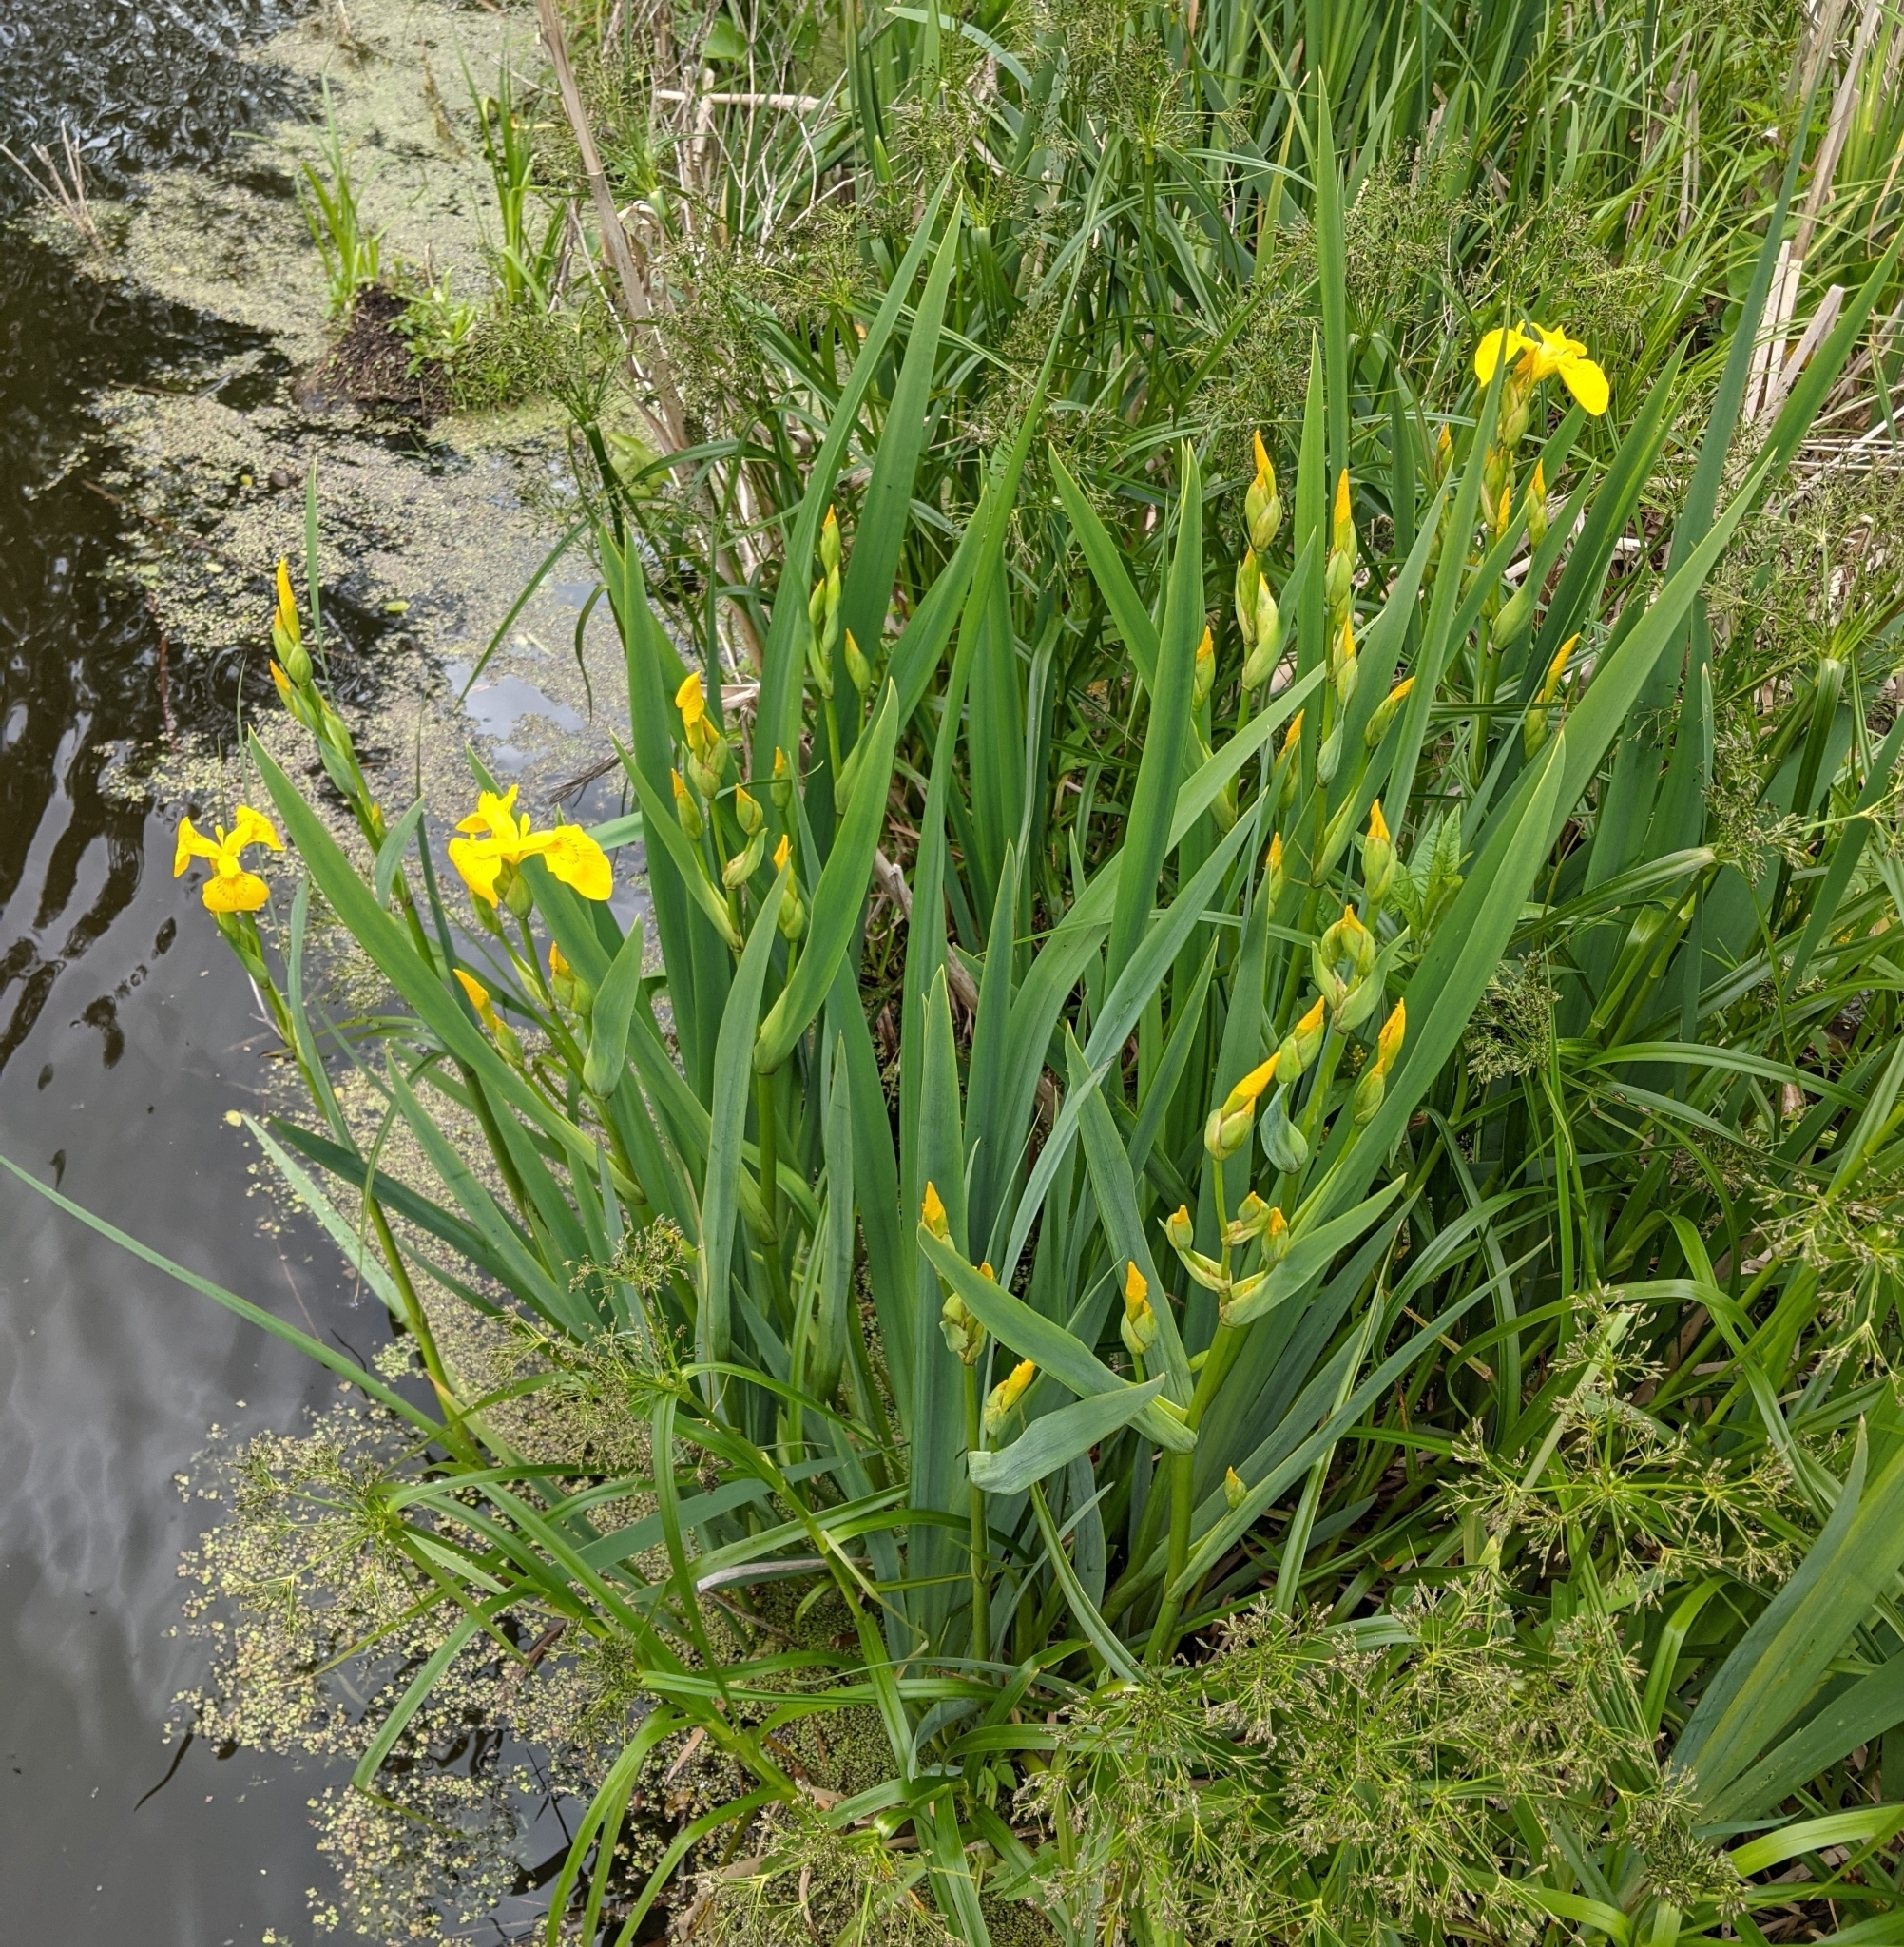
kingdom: Plantae
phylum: Tracheophyta
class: Liliopsida
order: Asparagales
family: Iridaceae
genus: Iris
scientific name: Iris pseudacorus
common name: Yellow flag
